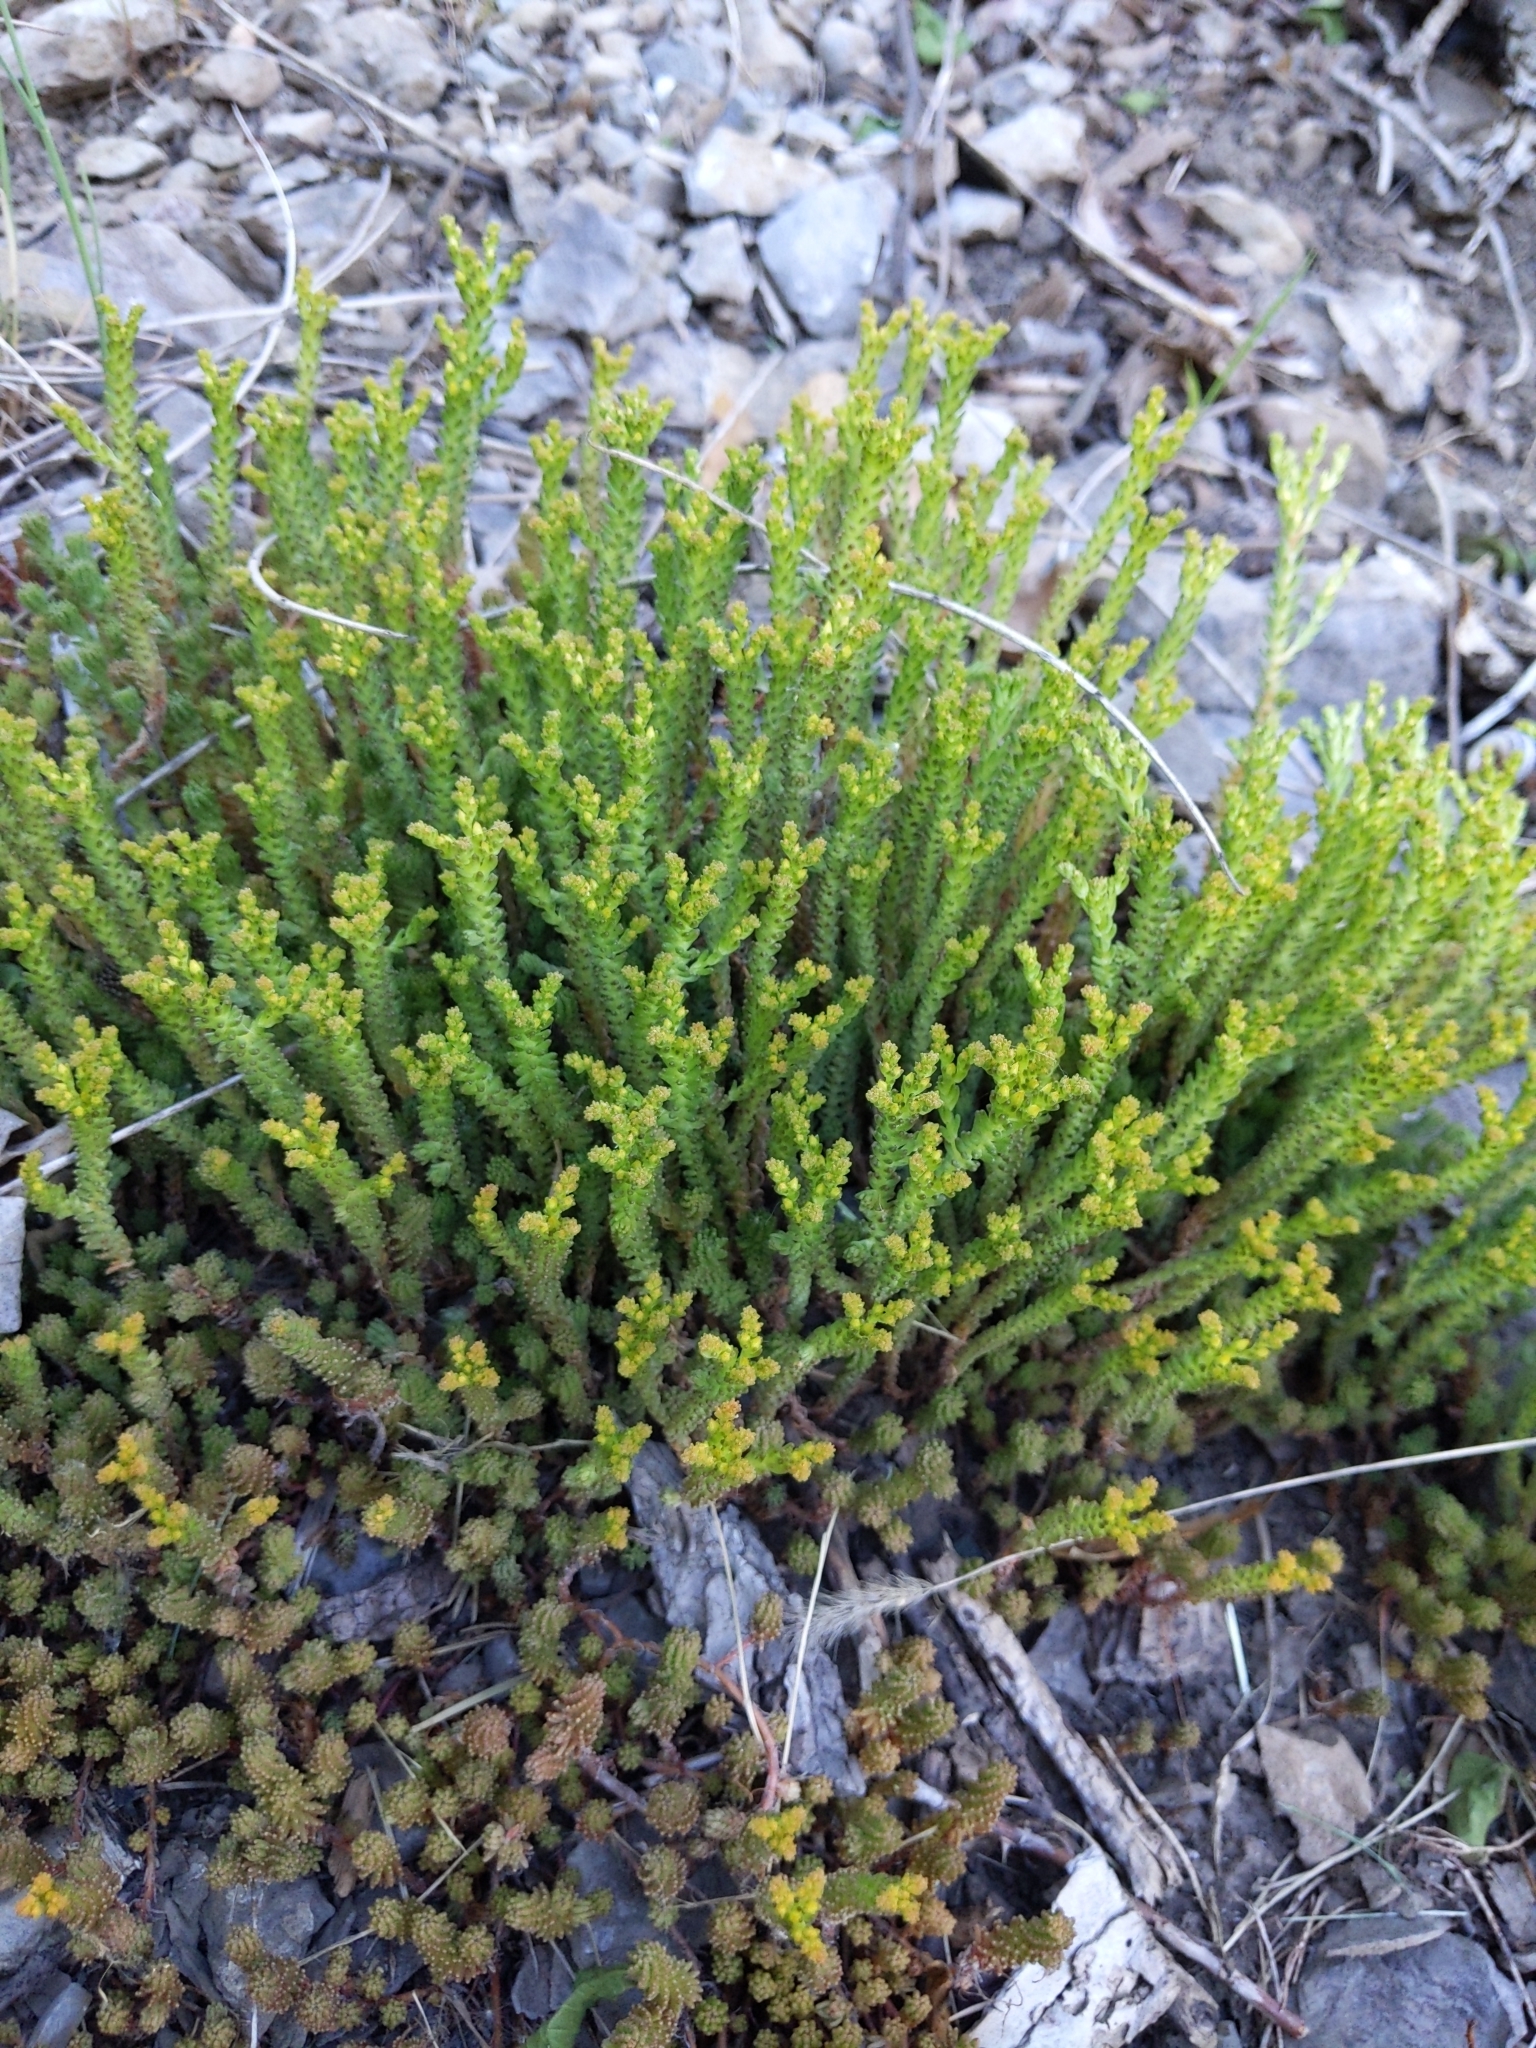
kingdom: Plantae
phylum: Tracheophyta
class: Magnoliopsida
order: Saxifragales
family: Crassulaceae
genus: Sedum
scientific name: Sedum sexangulare
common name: Tasteless stonecrop
